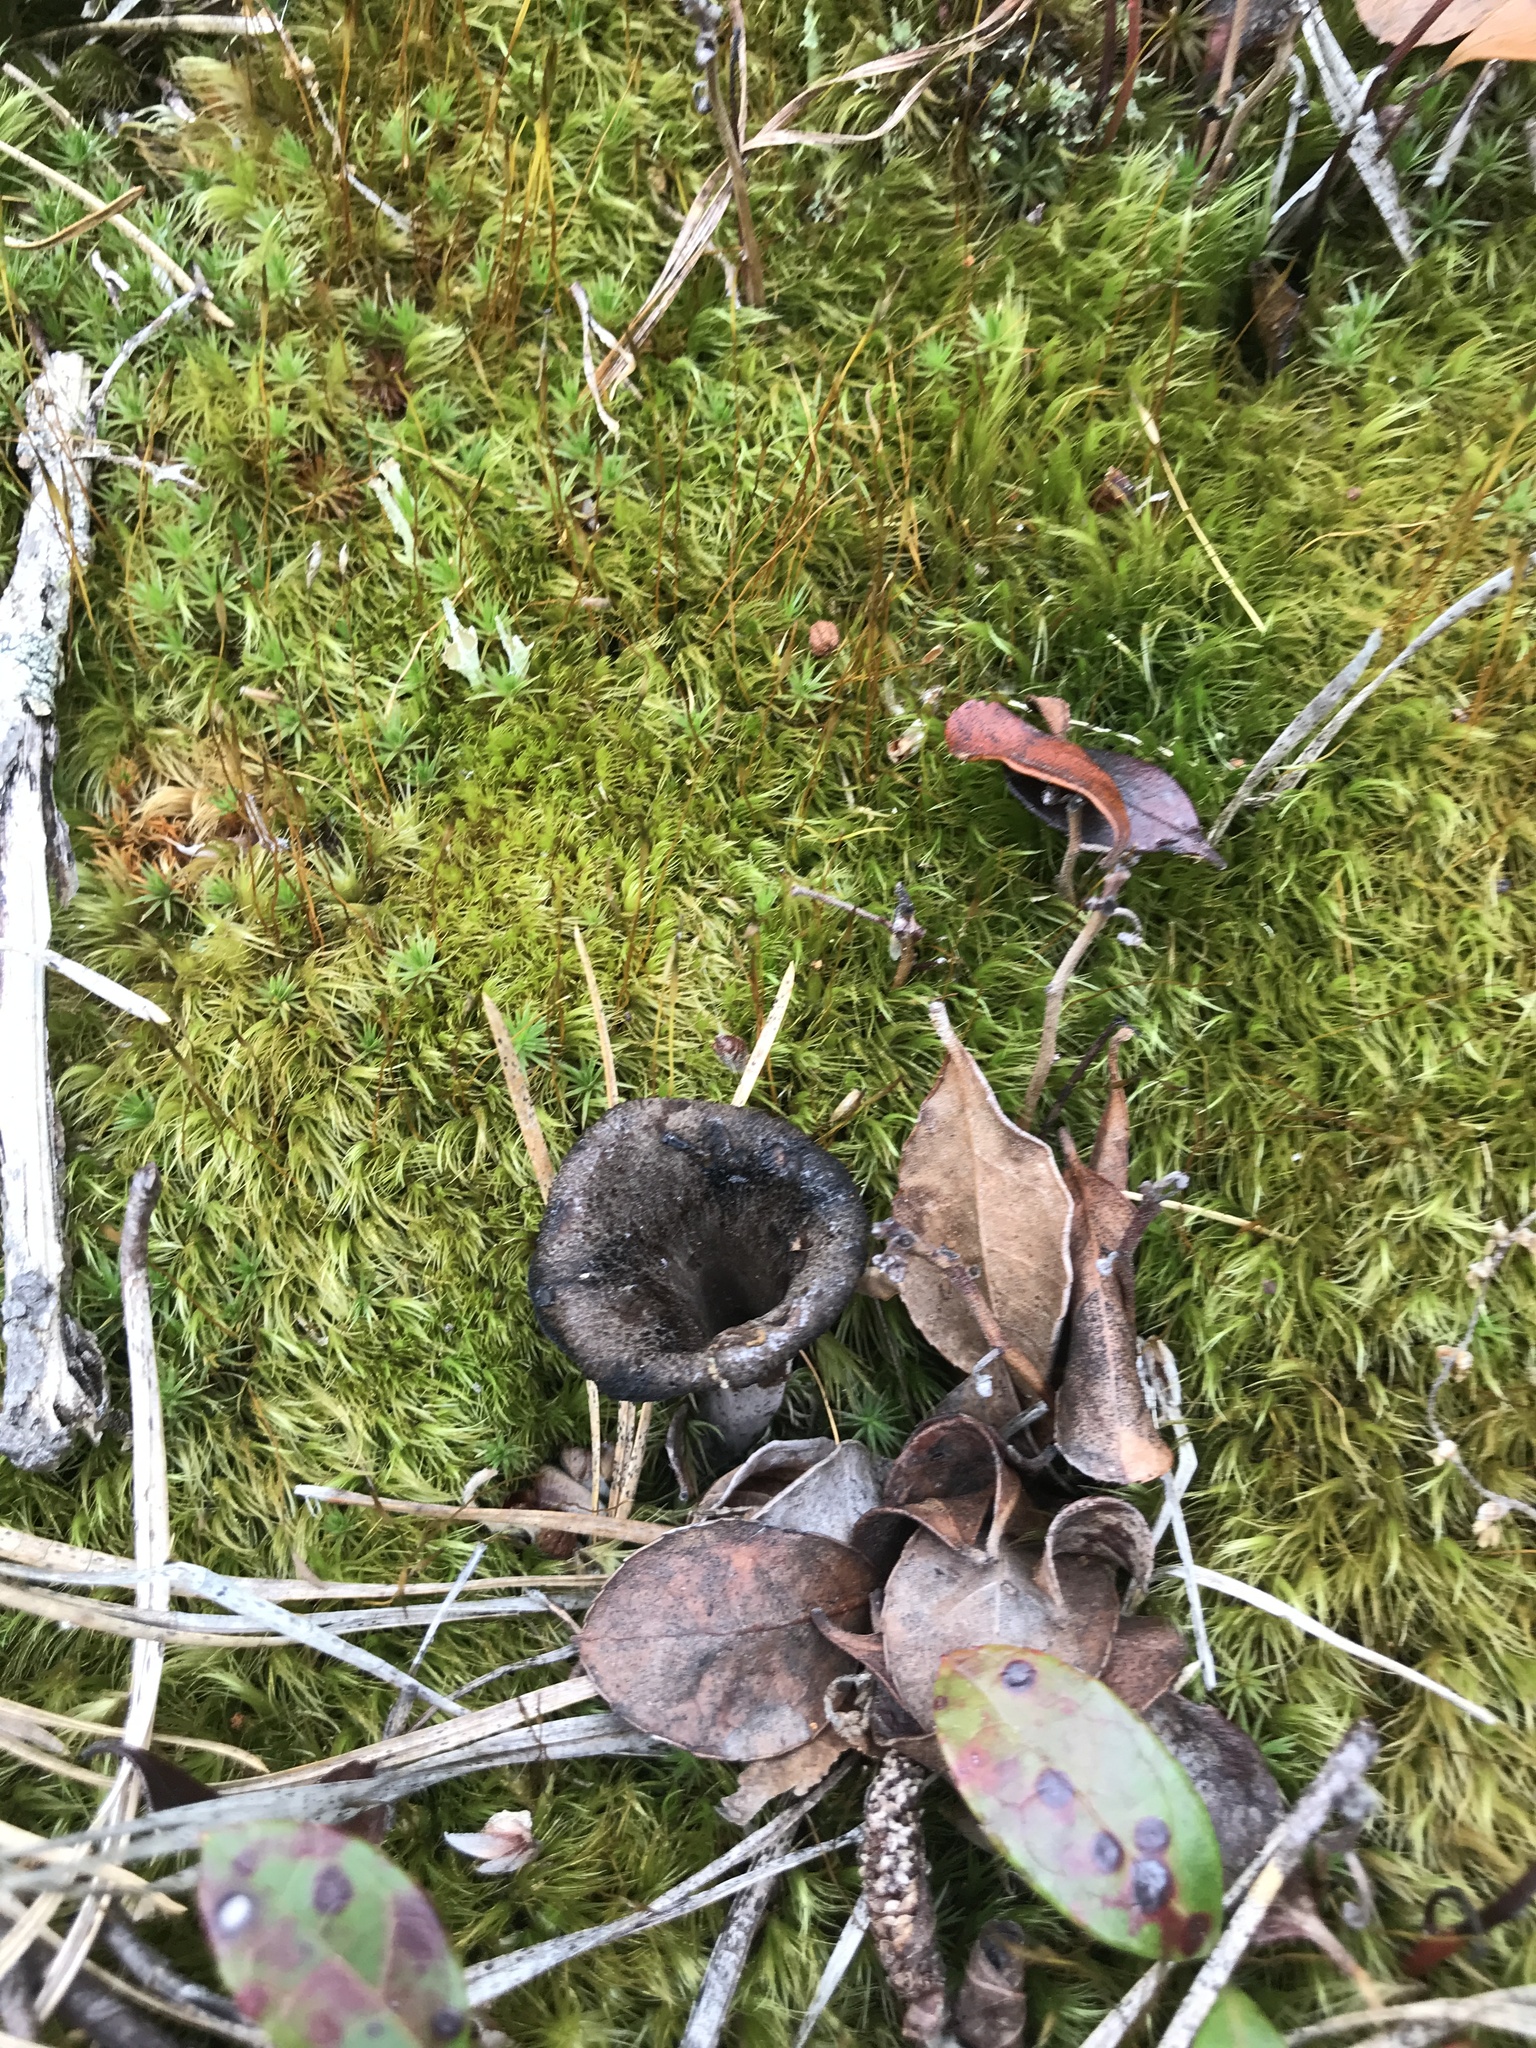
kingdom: Fungi
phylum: Basidiomycota
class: Agaricomycetes
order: Cantharellales
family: Hydnaceae
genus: Craterellus
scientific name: Craterellus cornucopioides
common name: Horn of plenty
